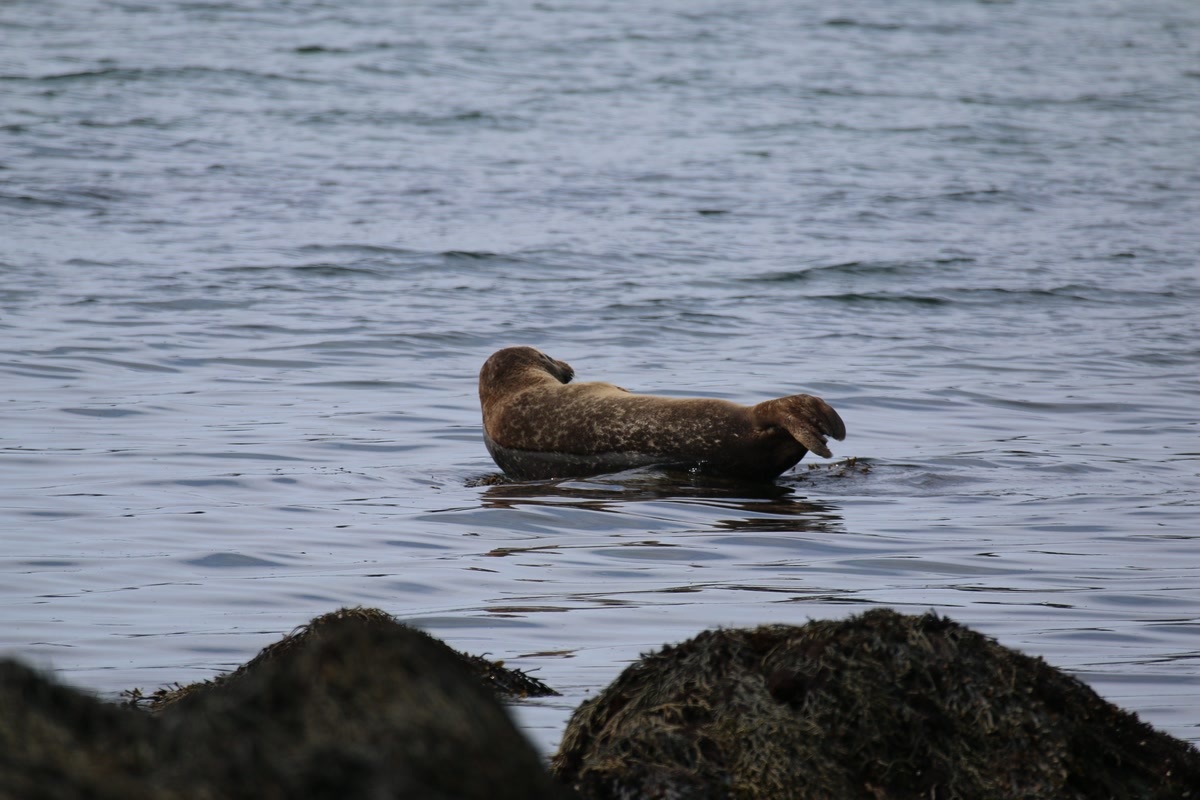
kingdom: Animalia
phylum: Chordata
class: Mammalia
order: Carnivora
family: Phocidae
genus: Phoca
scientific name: Phoca vitulina
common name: Harbor seal
